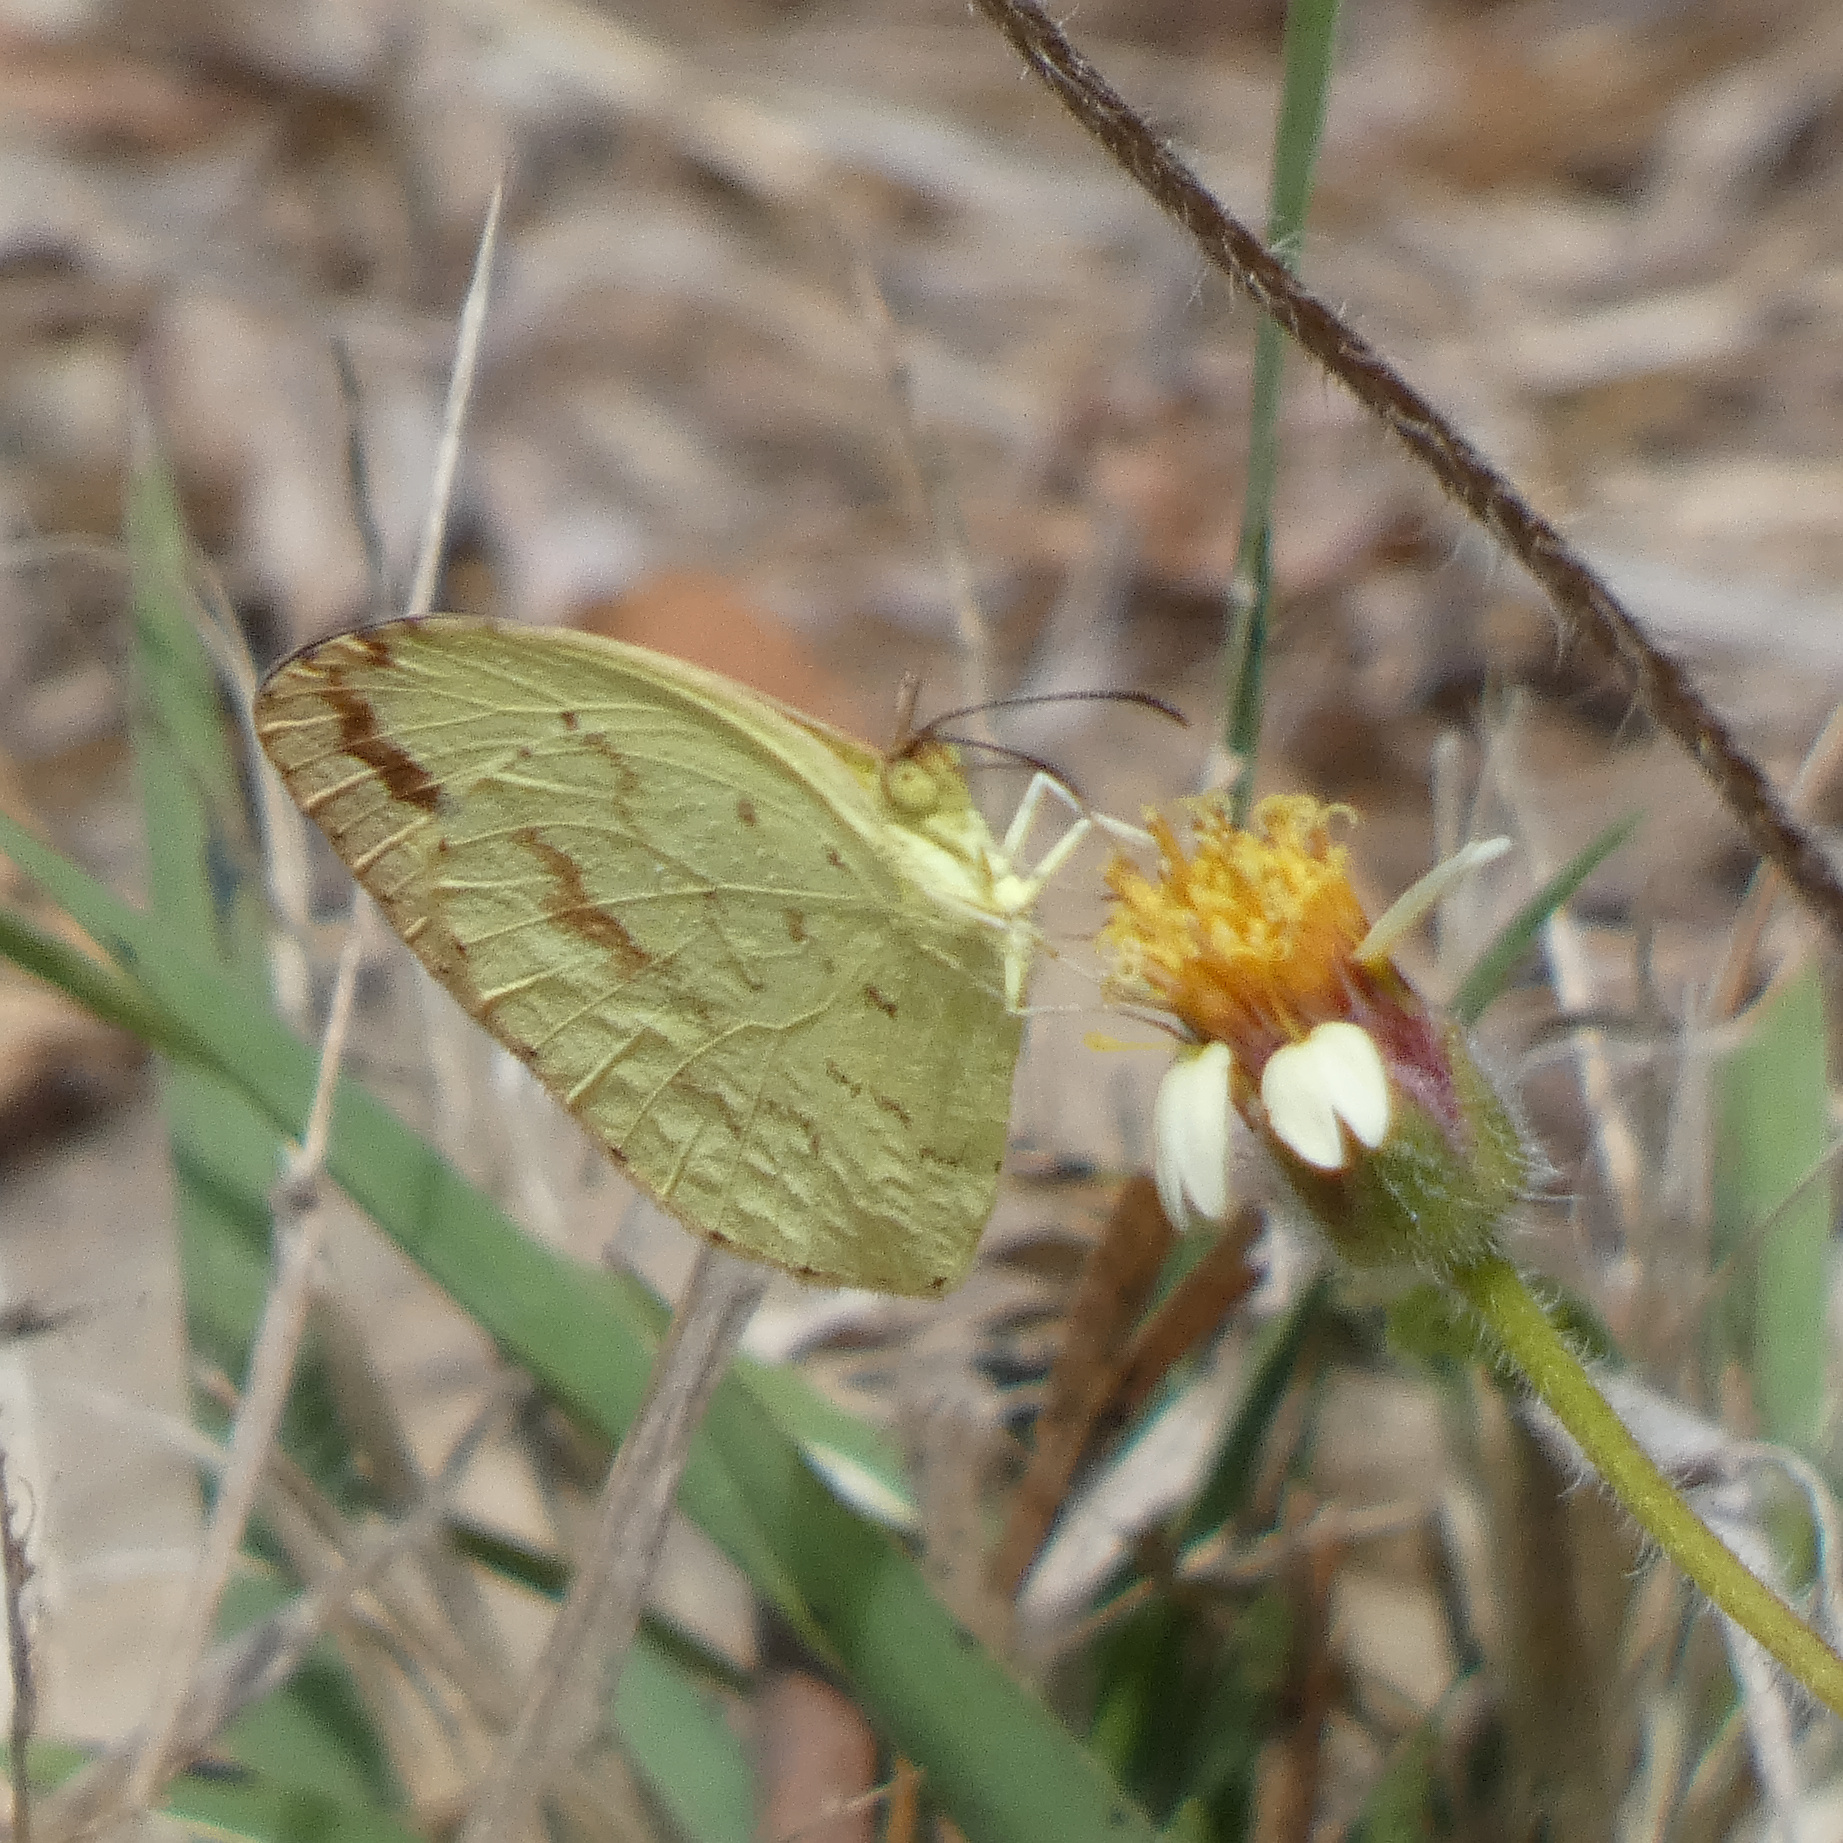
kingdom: Animalia
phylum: Arthropoda
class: Insecta
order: Lepidoptera
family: Pieridae
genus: Eurema
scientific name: Eurema regularis
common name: Regular grass yellow
